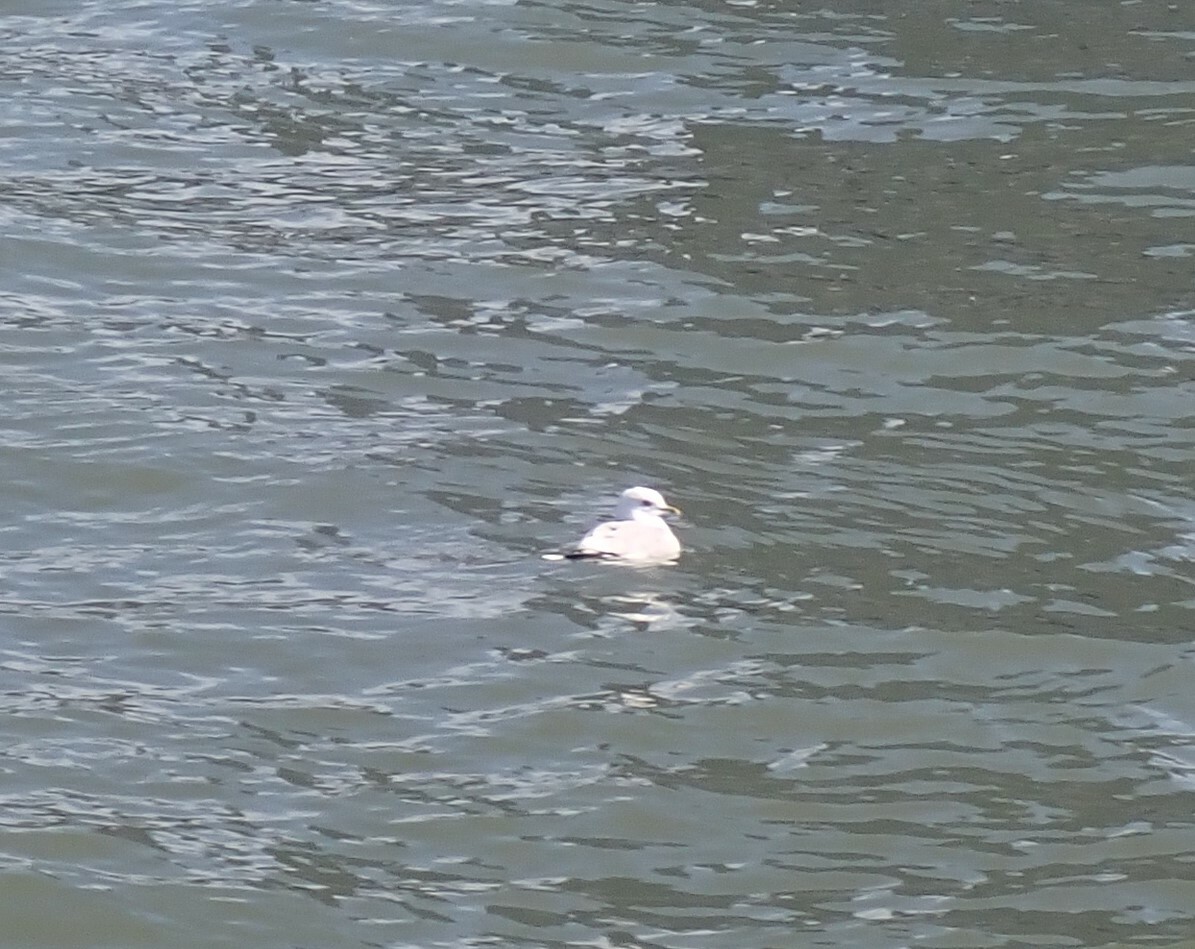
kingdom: Animalia
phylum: Chordata
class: Aves
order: Charadriiformes
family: Laridae
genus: Larus
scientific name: Larus canus
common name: Mew gull
